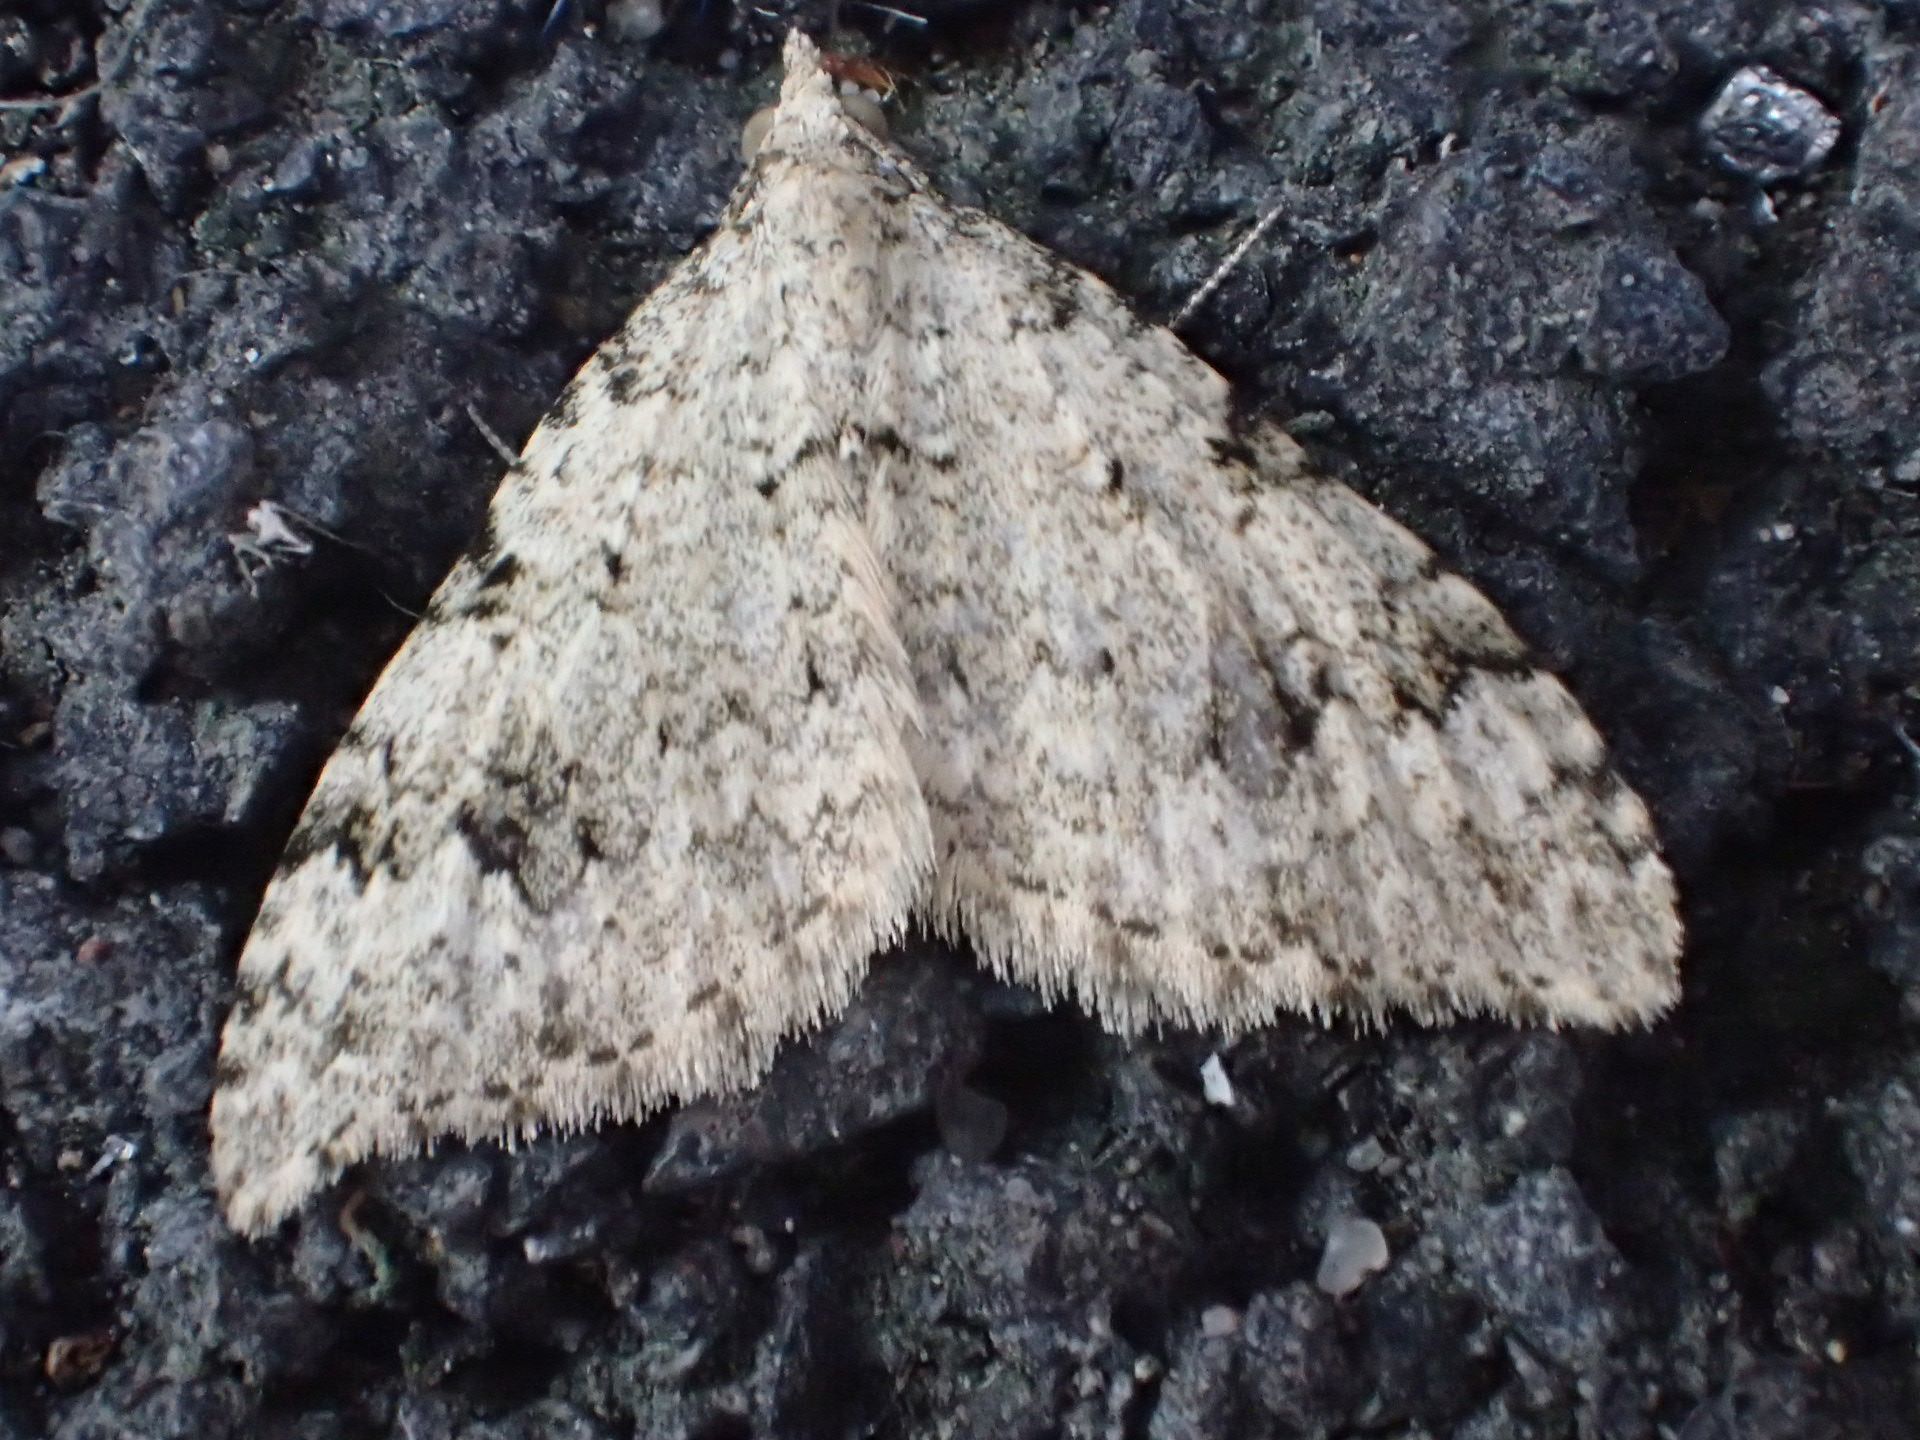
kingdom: Animalia
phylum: Arthropoda
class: Insecta
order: Lepidoptera
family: Geometridae
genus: Helastia
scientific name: Helastia cinerearia
